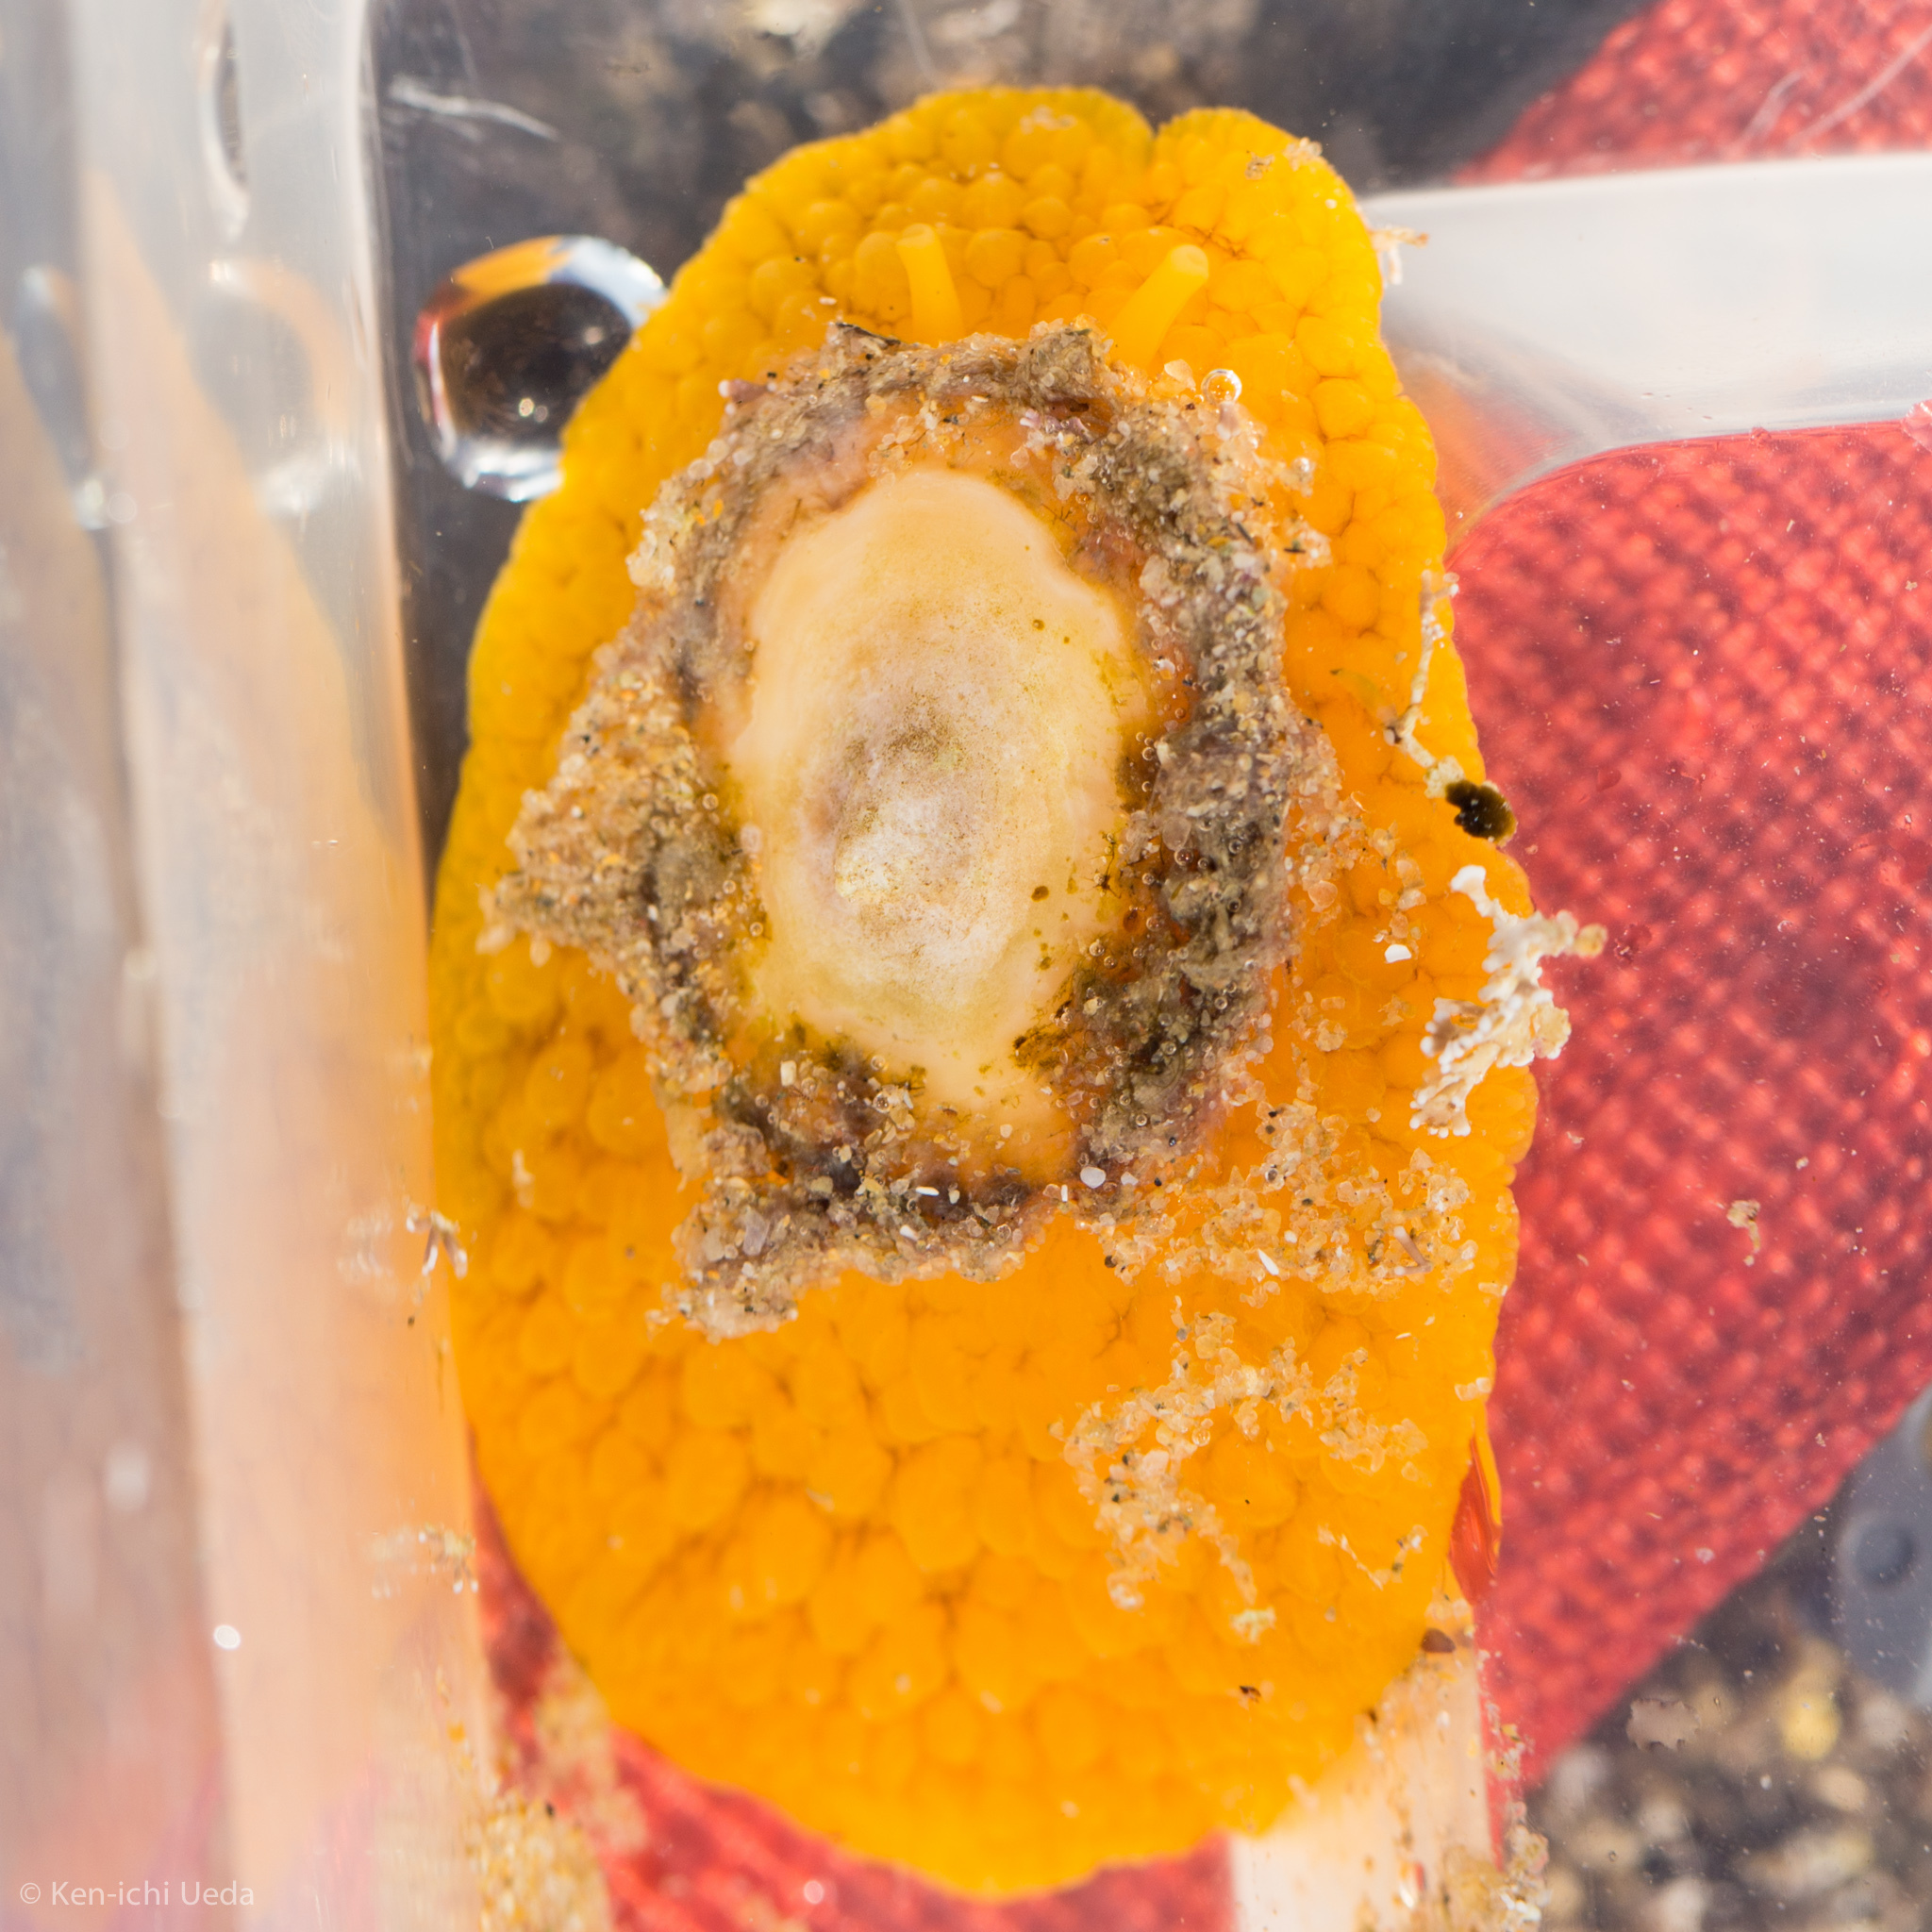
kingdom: Animalia
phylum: Mollusca
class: Gastropoda
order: Umbraculida
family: Umbraculidae
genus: Umbraculum
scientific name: Umbraculum umbraculum
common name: Atlantic umbrella slug
